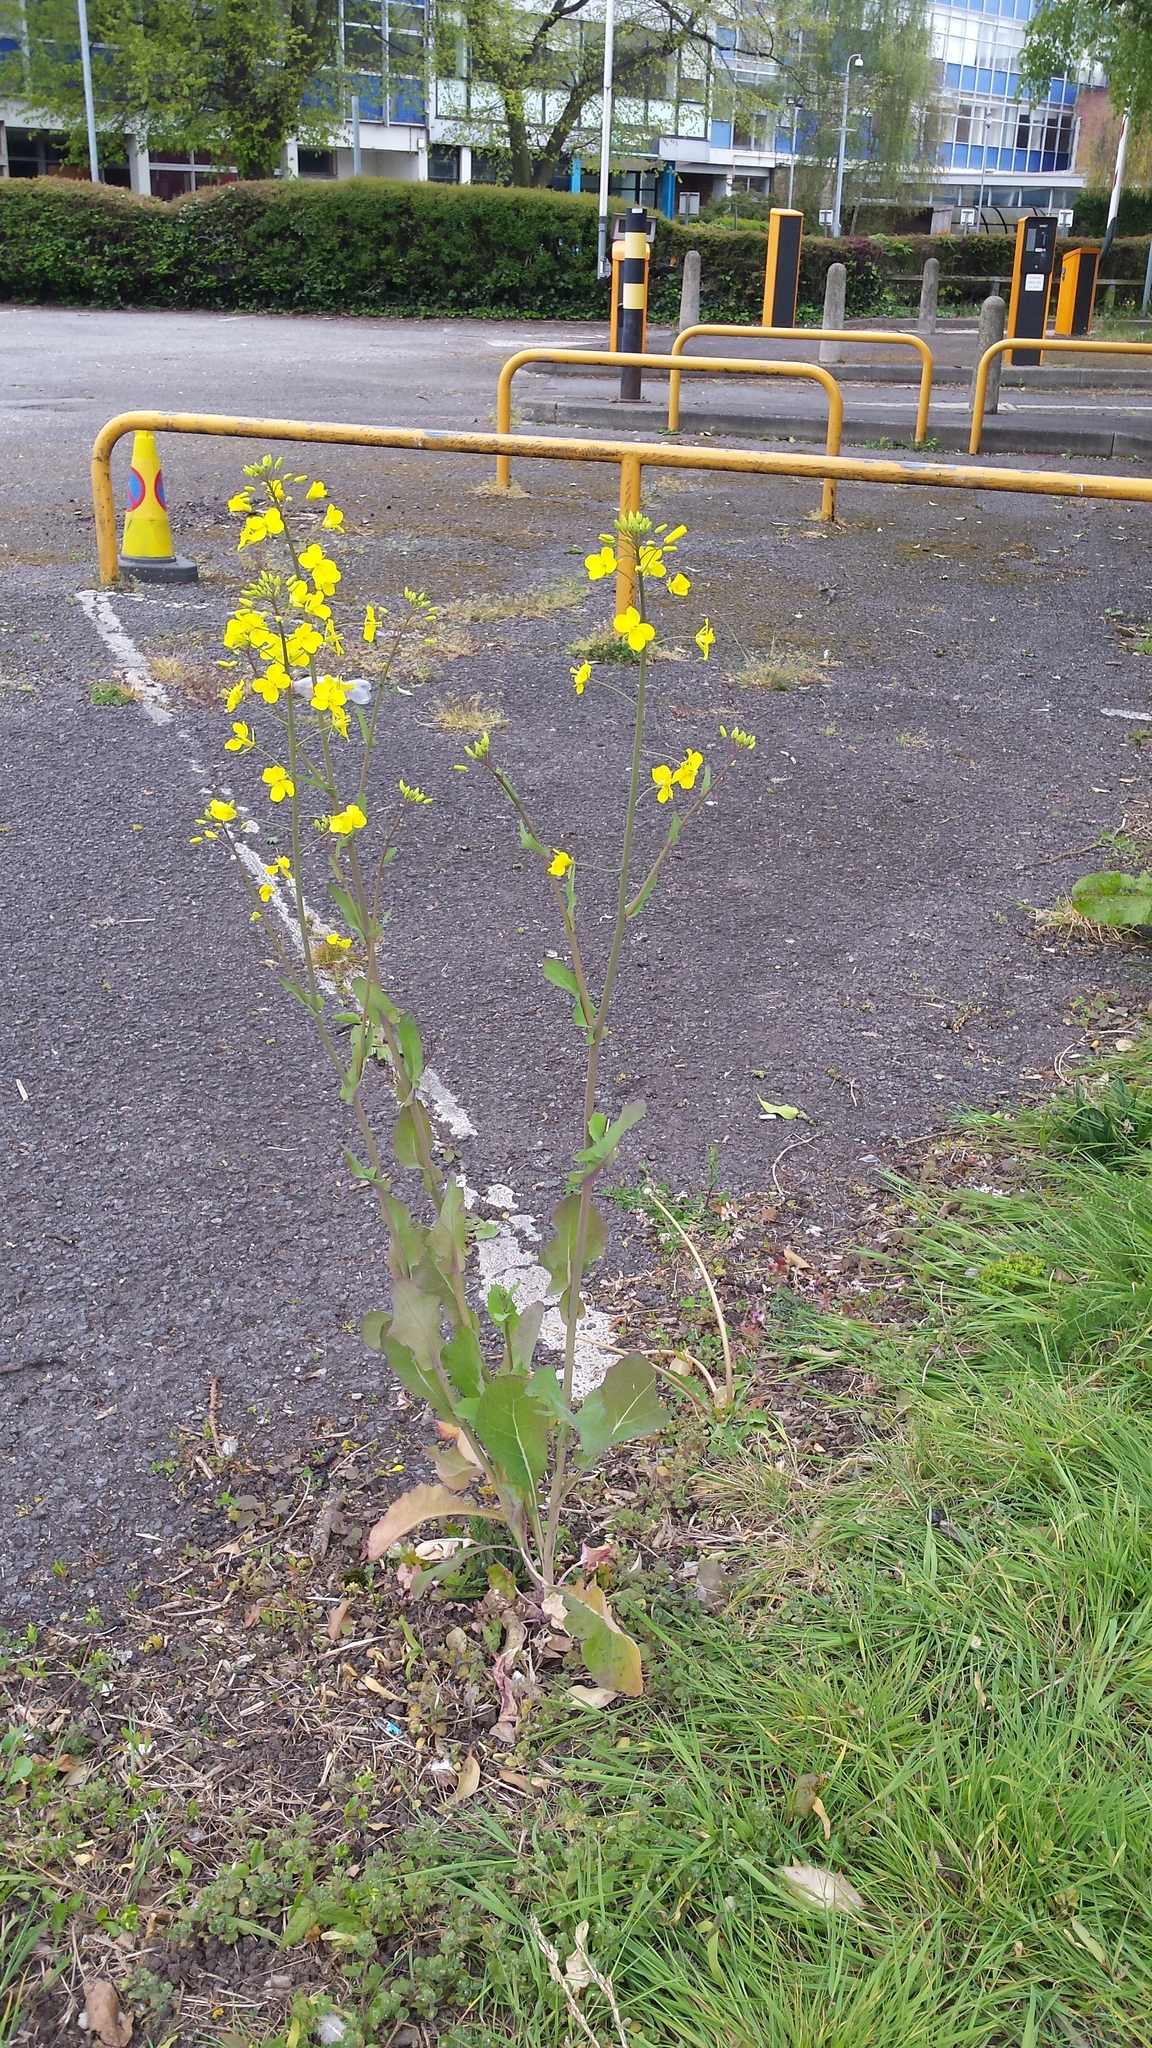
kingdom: Plantae
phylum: Tracheophyta
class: Magnoliopsida
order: Brassicales
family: Brassicaceae
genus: Brassica
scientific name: Brassica napus
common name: Rape
